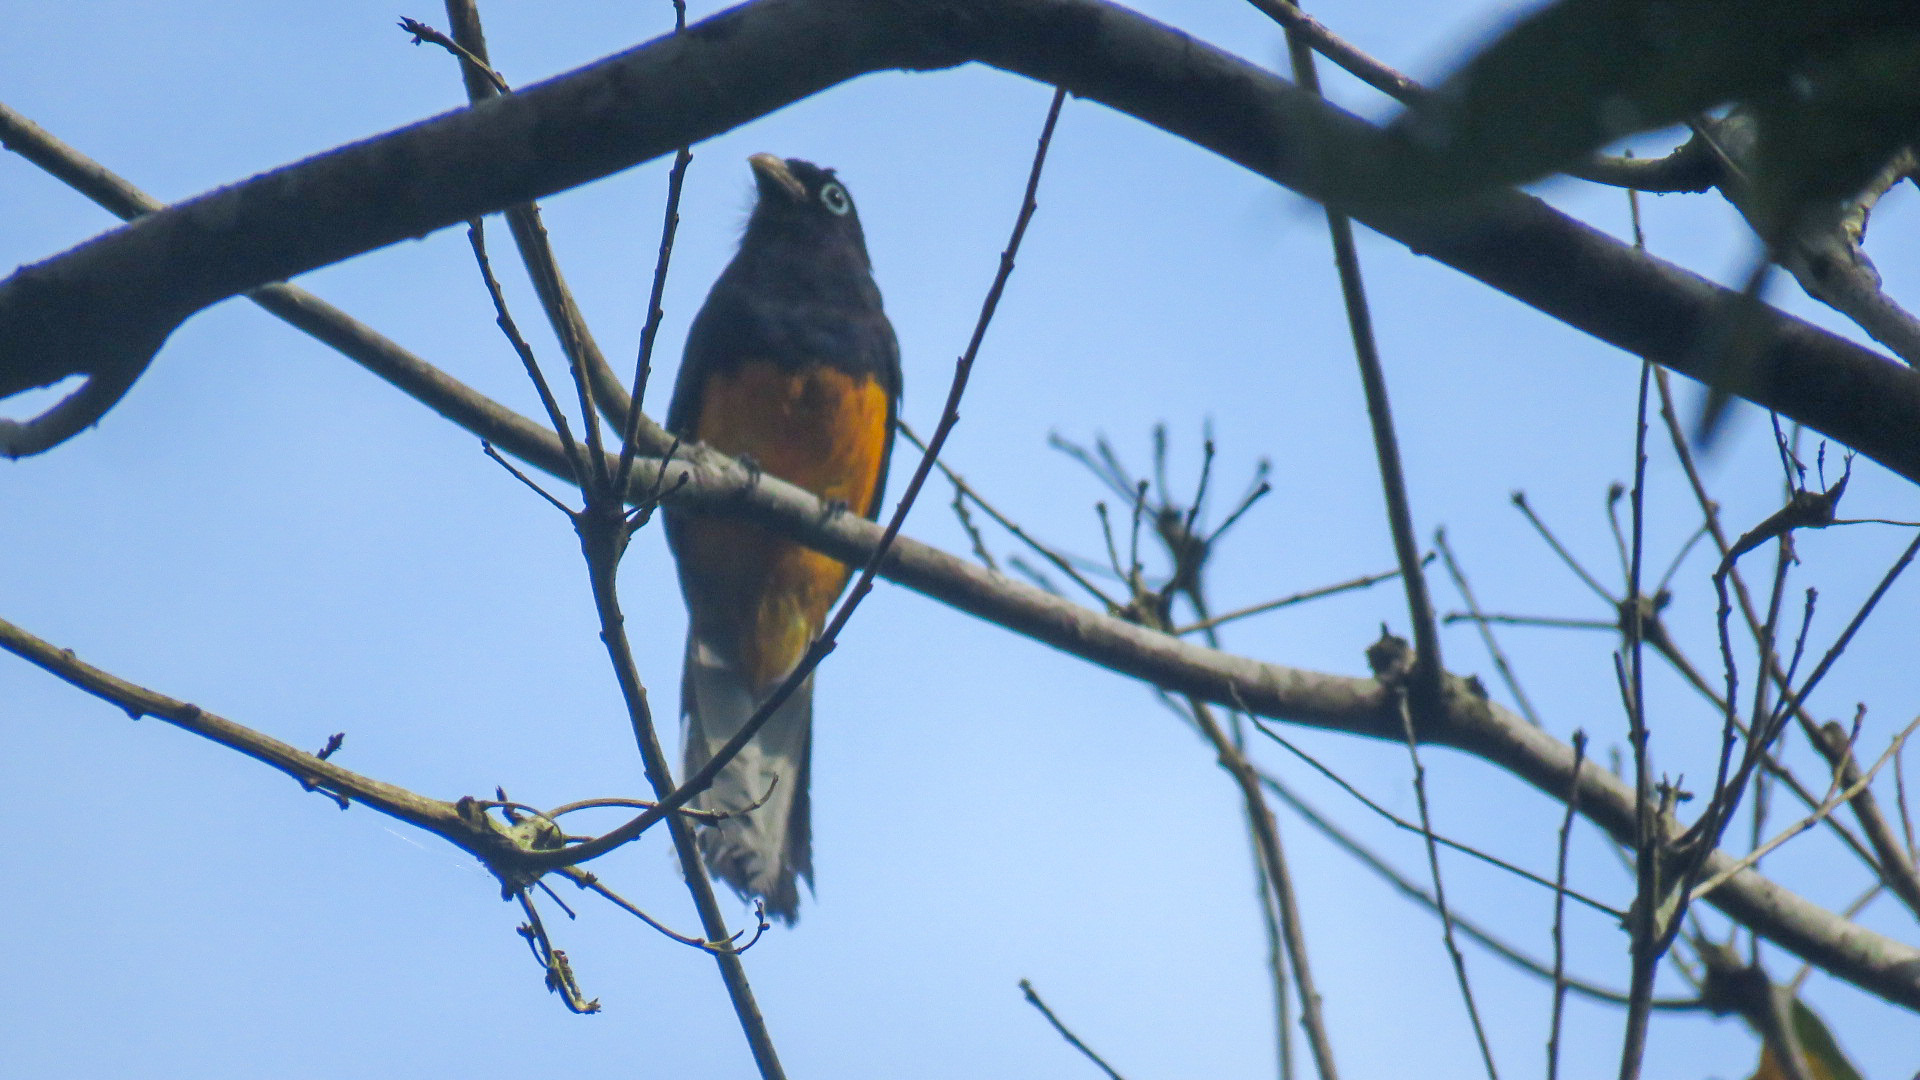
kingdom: Animalia
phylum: Chordata
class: Aves
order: Trogoniformes
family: Trogonidae
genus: Trogon
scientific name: Trogon chionurus
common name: White-tailed trogon
